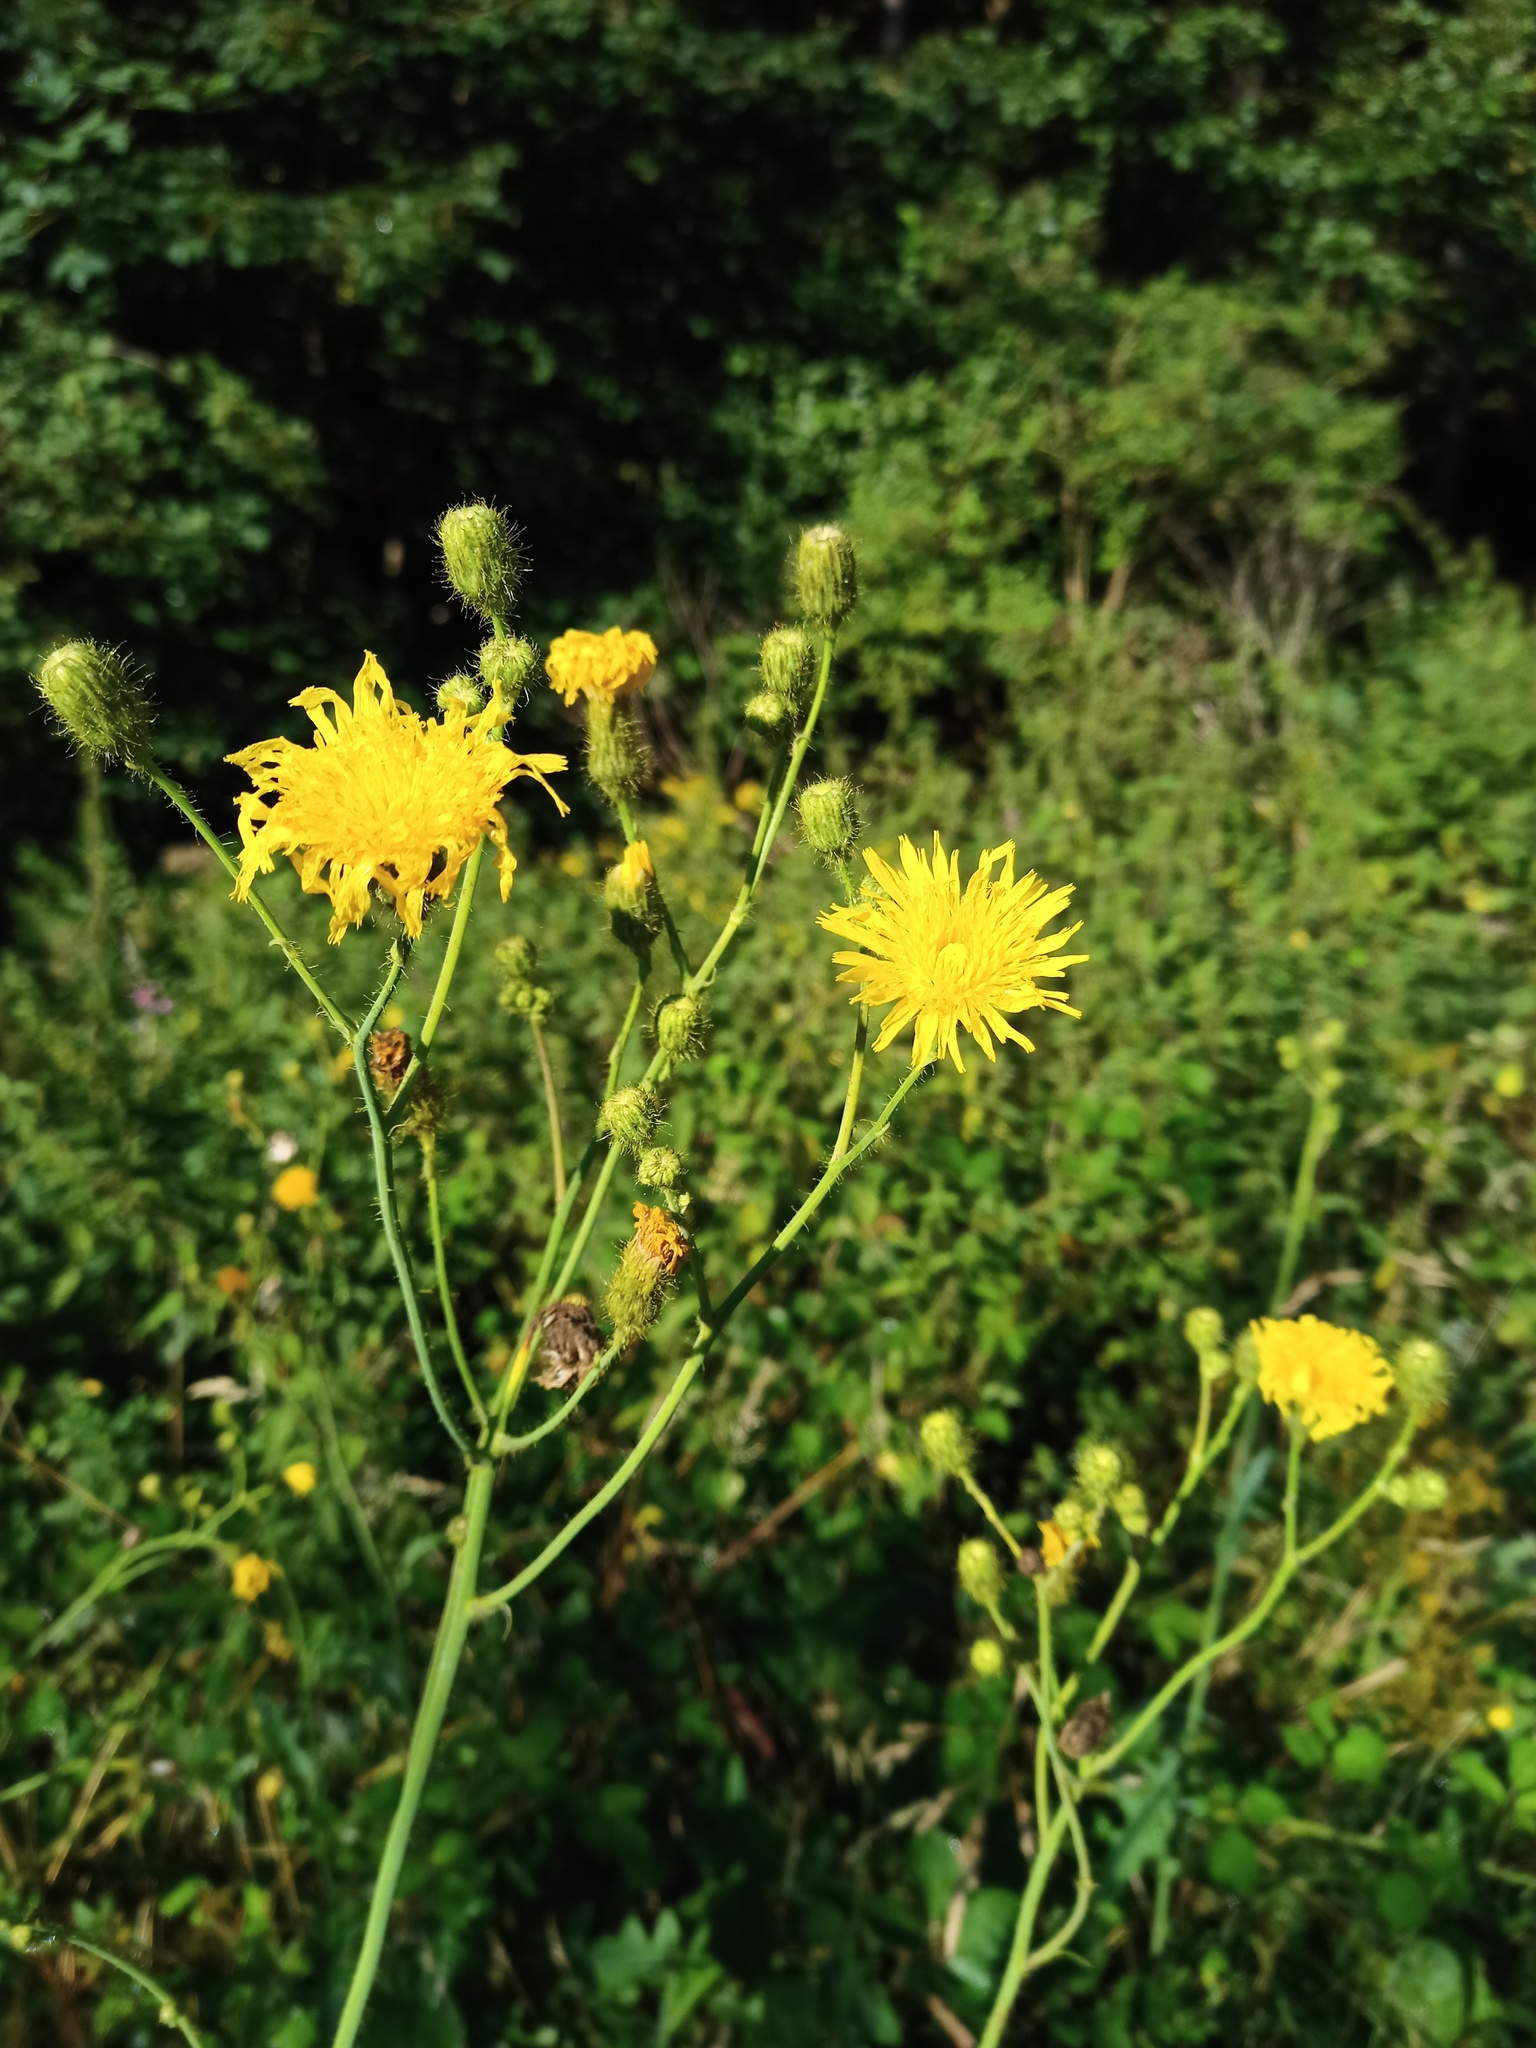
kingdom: Plantae
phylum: Tracheophyta
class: Magnoliopsida
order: Asterales
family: Asteraceae
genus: Sonchus
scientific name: Sonchus arvensis
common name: Perennial sow-thistle
